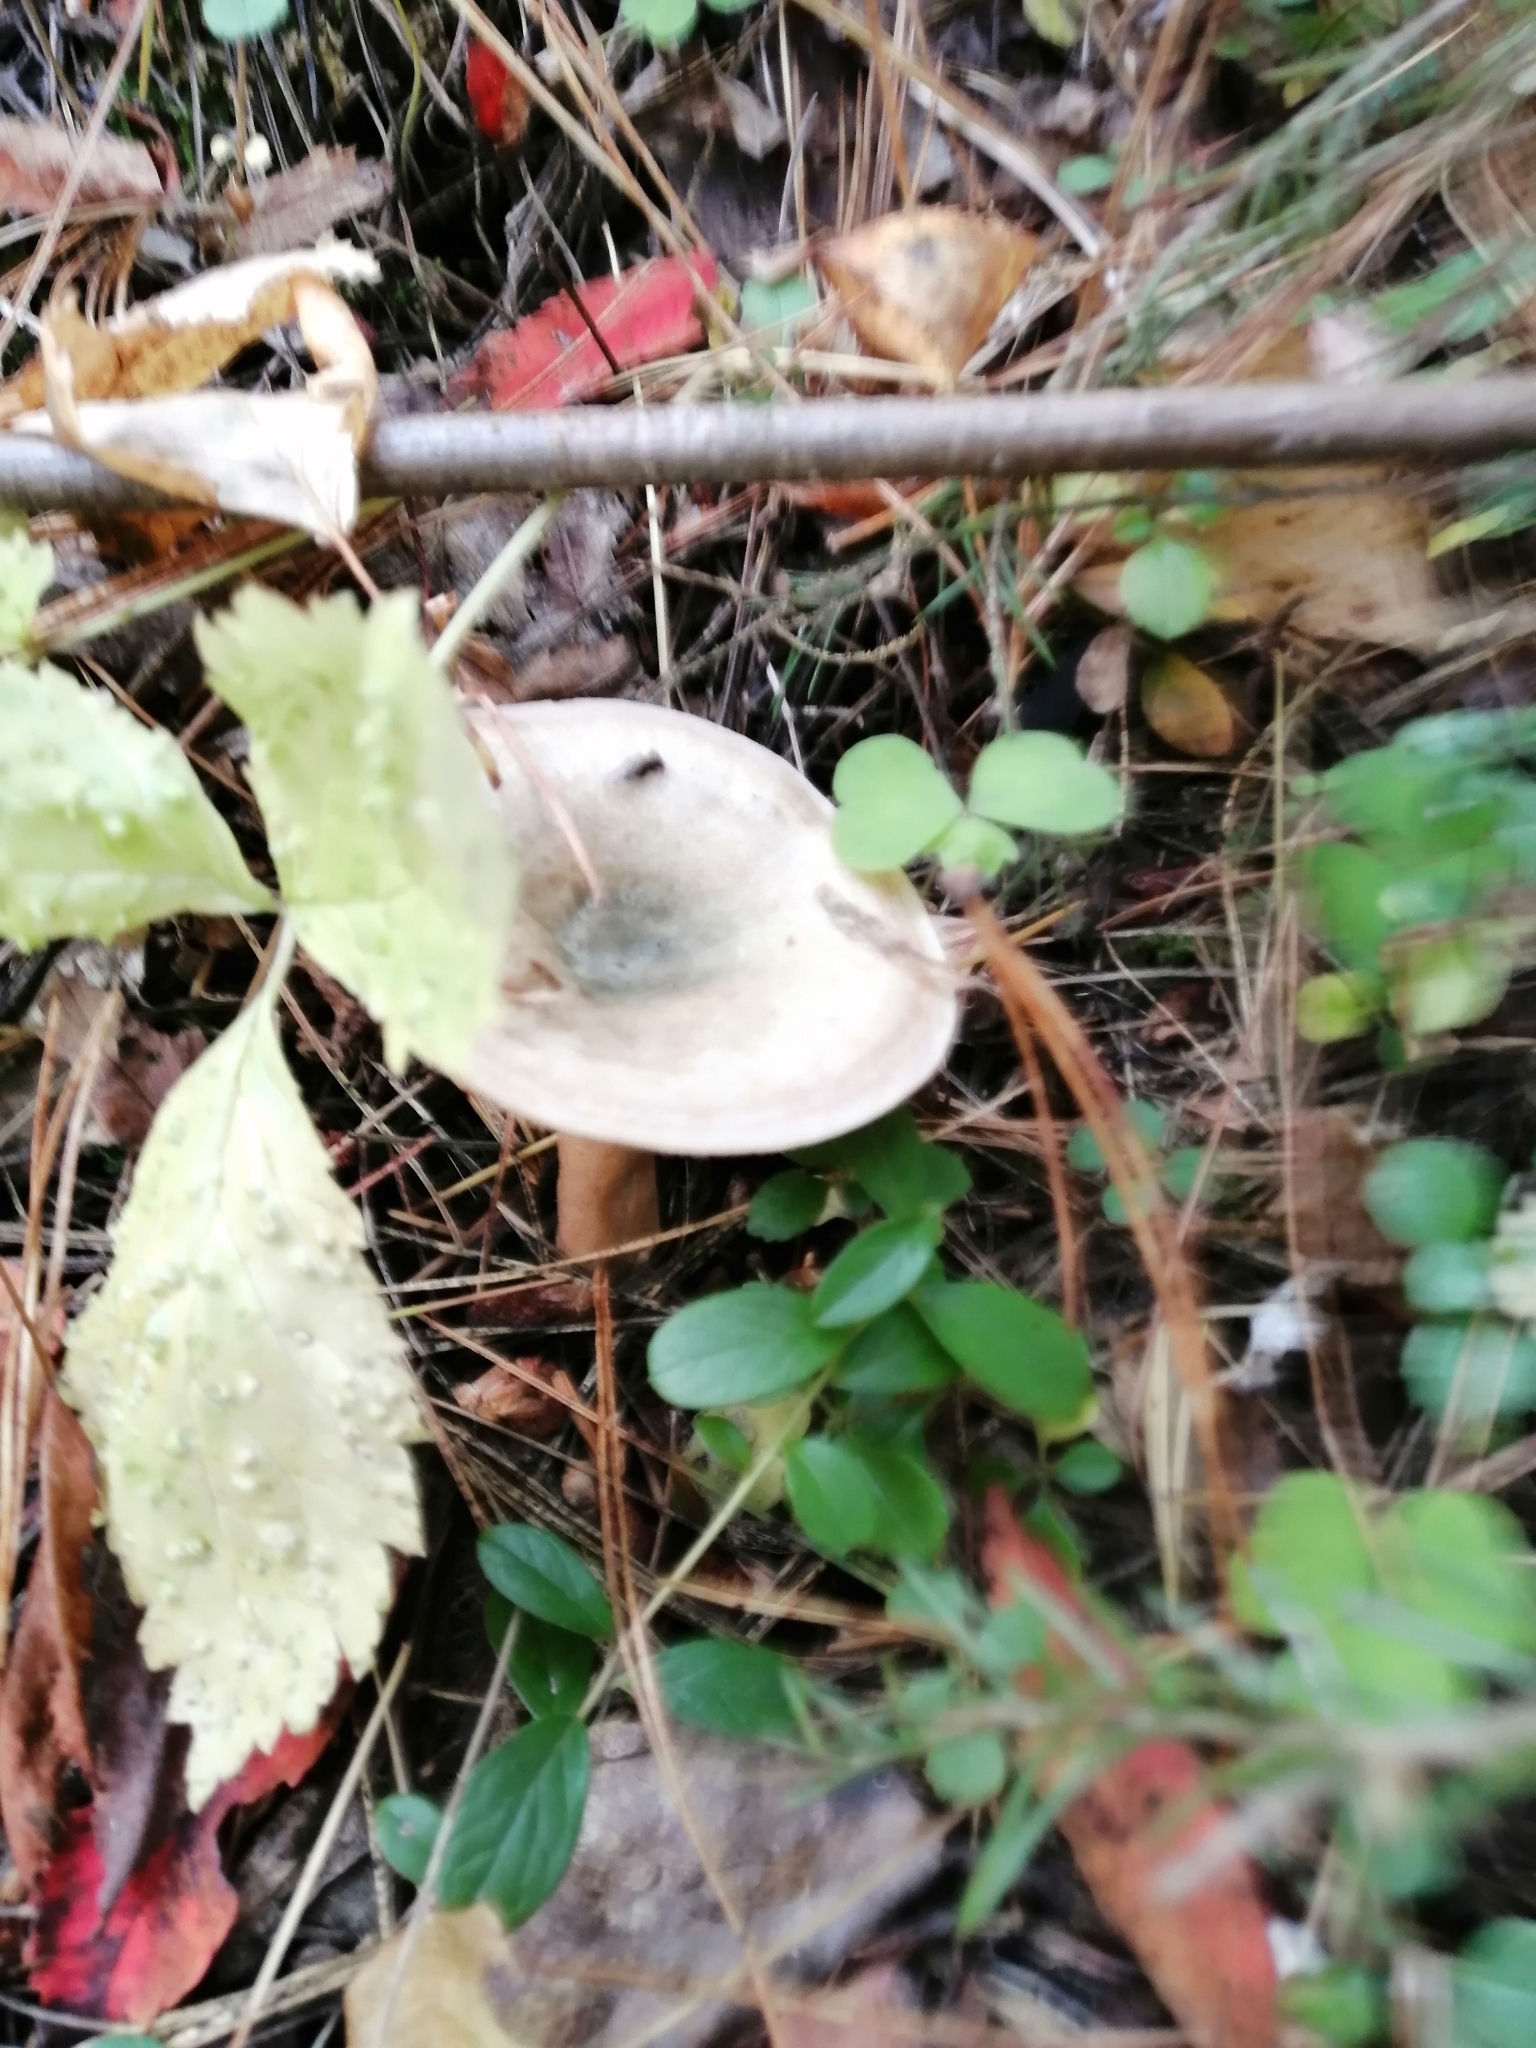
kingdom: Fungi
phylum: Basidiomycota
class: Agaricomycetes
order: Russulales
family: Russulaceae
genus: Lactarius
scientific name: Lactarius deterrimus
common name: False saffron milkcap
